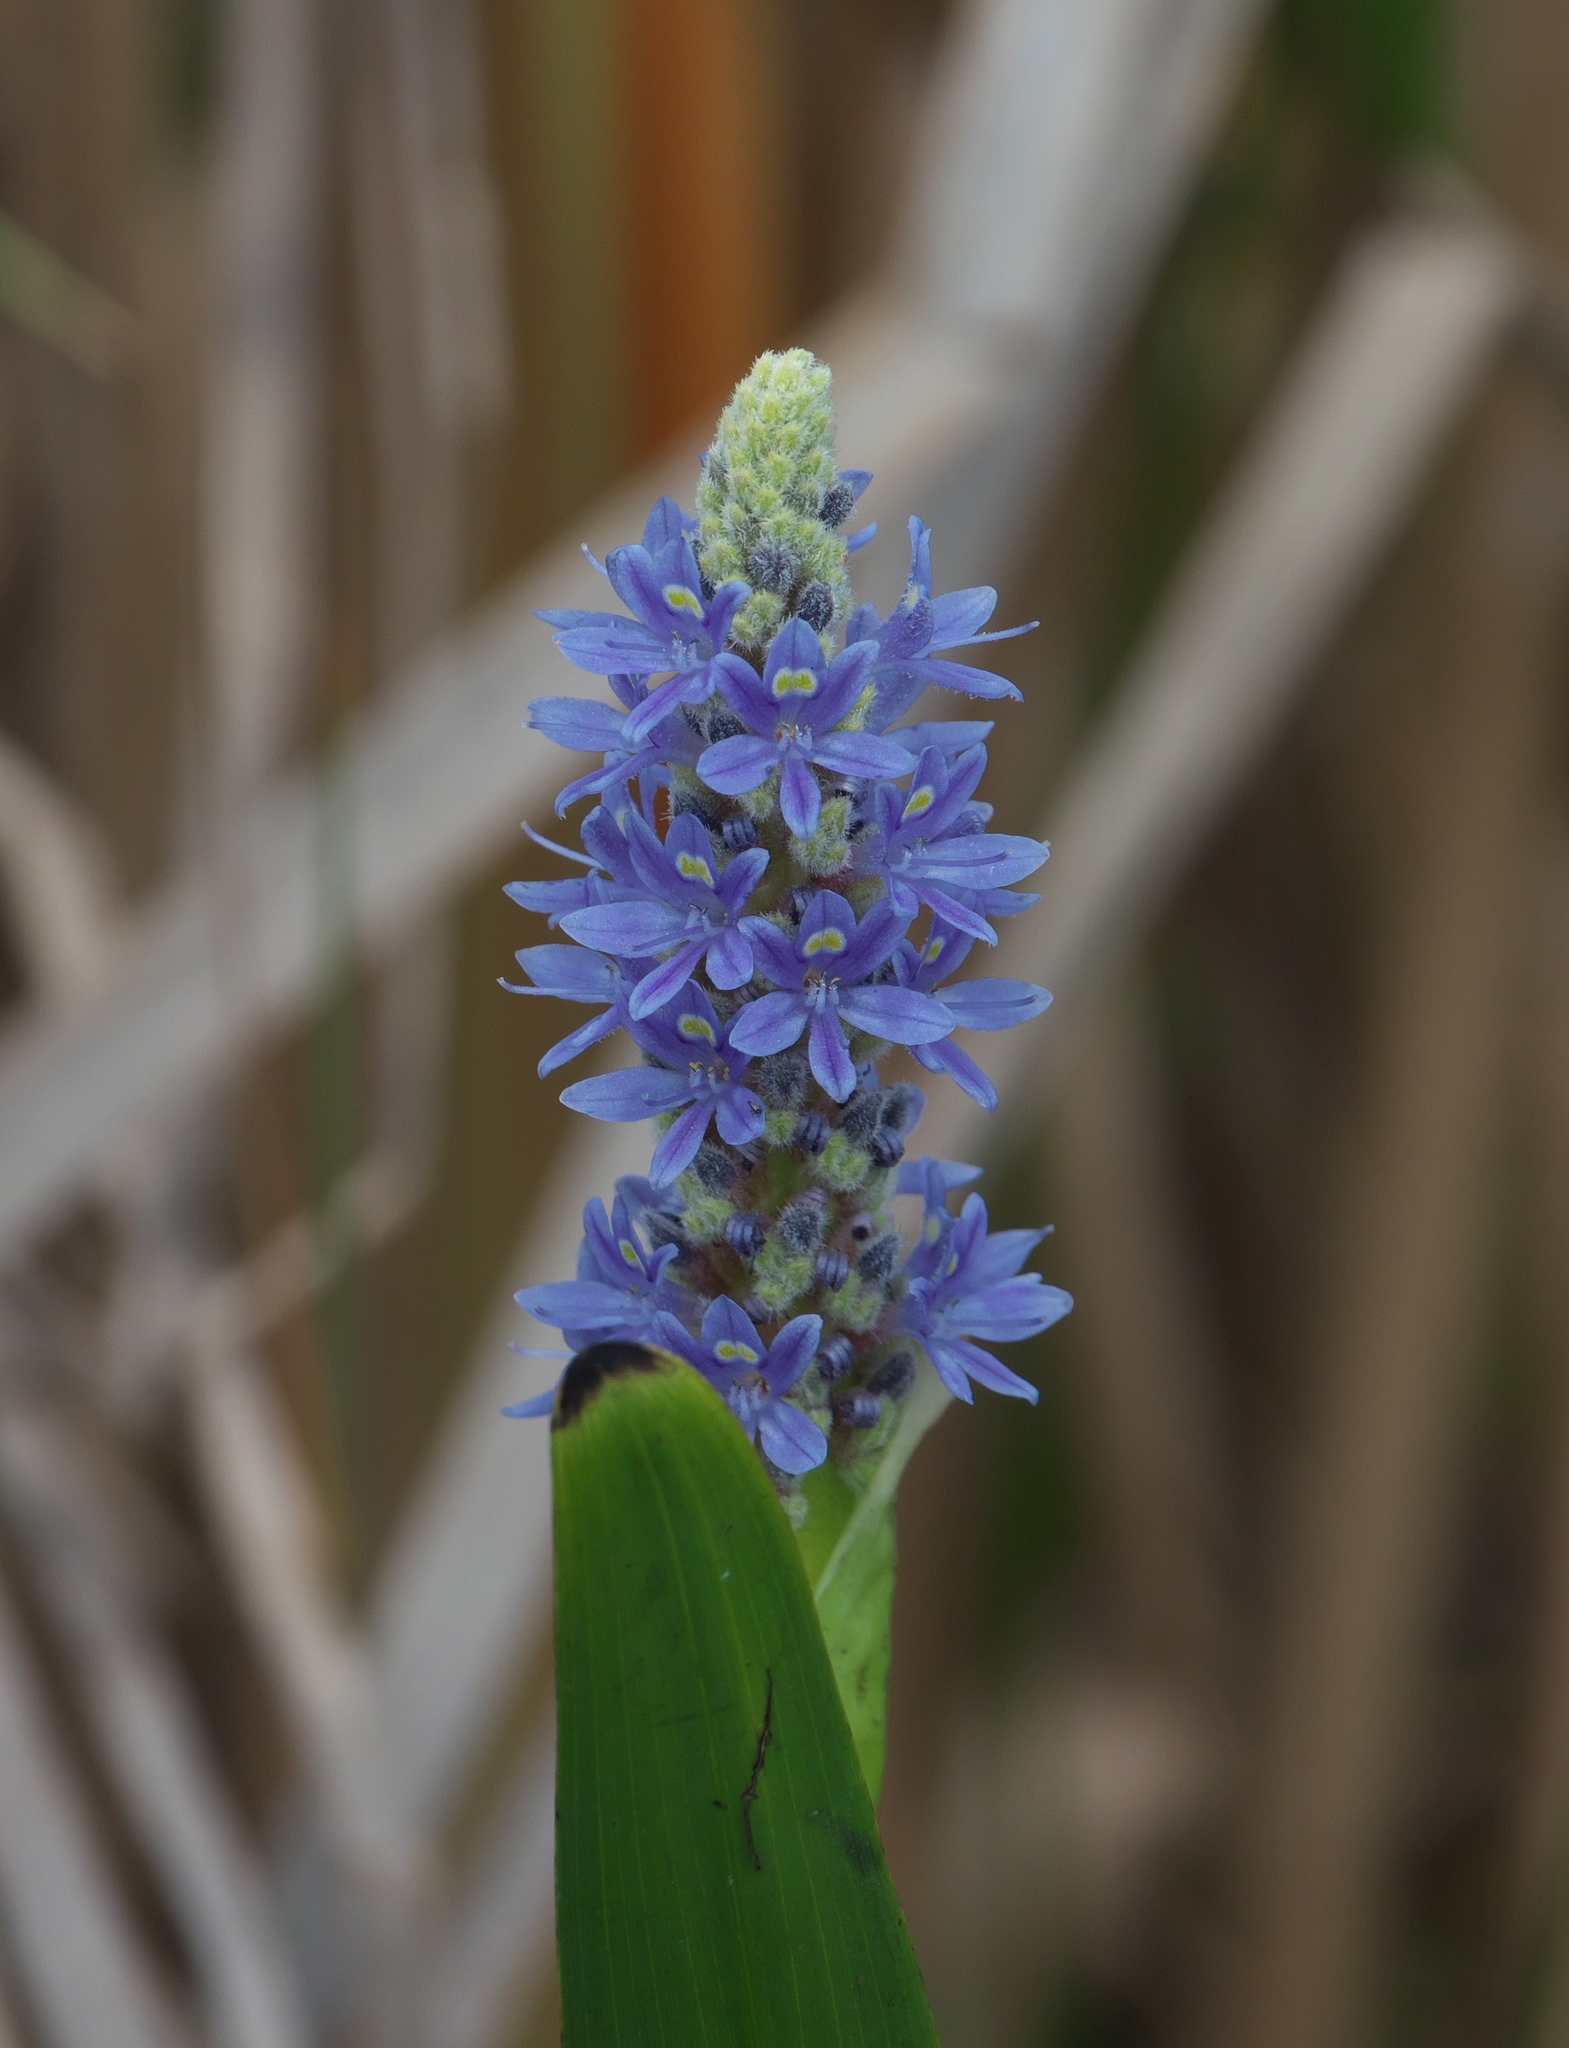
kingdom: Plantae
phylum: Tracheophyta
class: Liliopsida
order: Commelinales
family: Pontederiaceae
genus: Pontederia
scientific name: Pontederia cordata
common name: Pickerelweed
